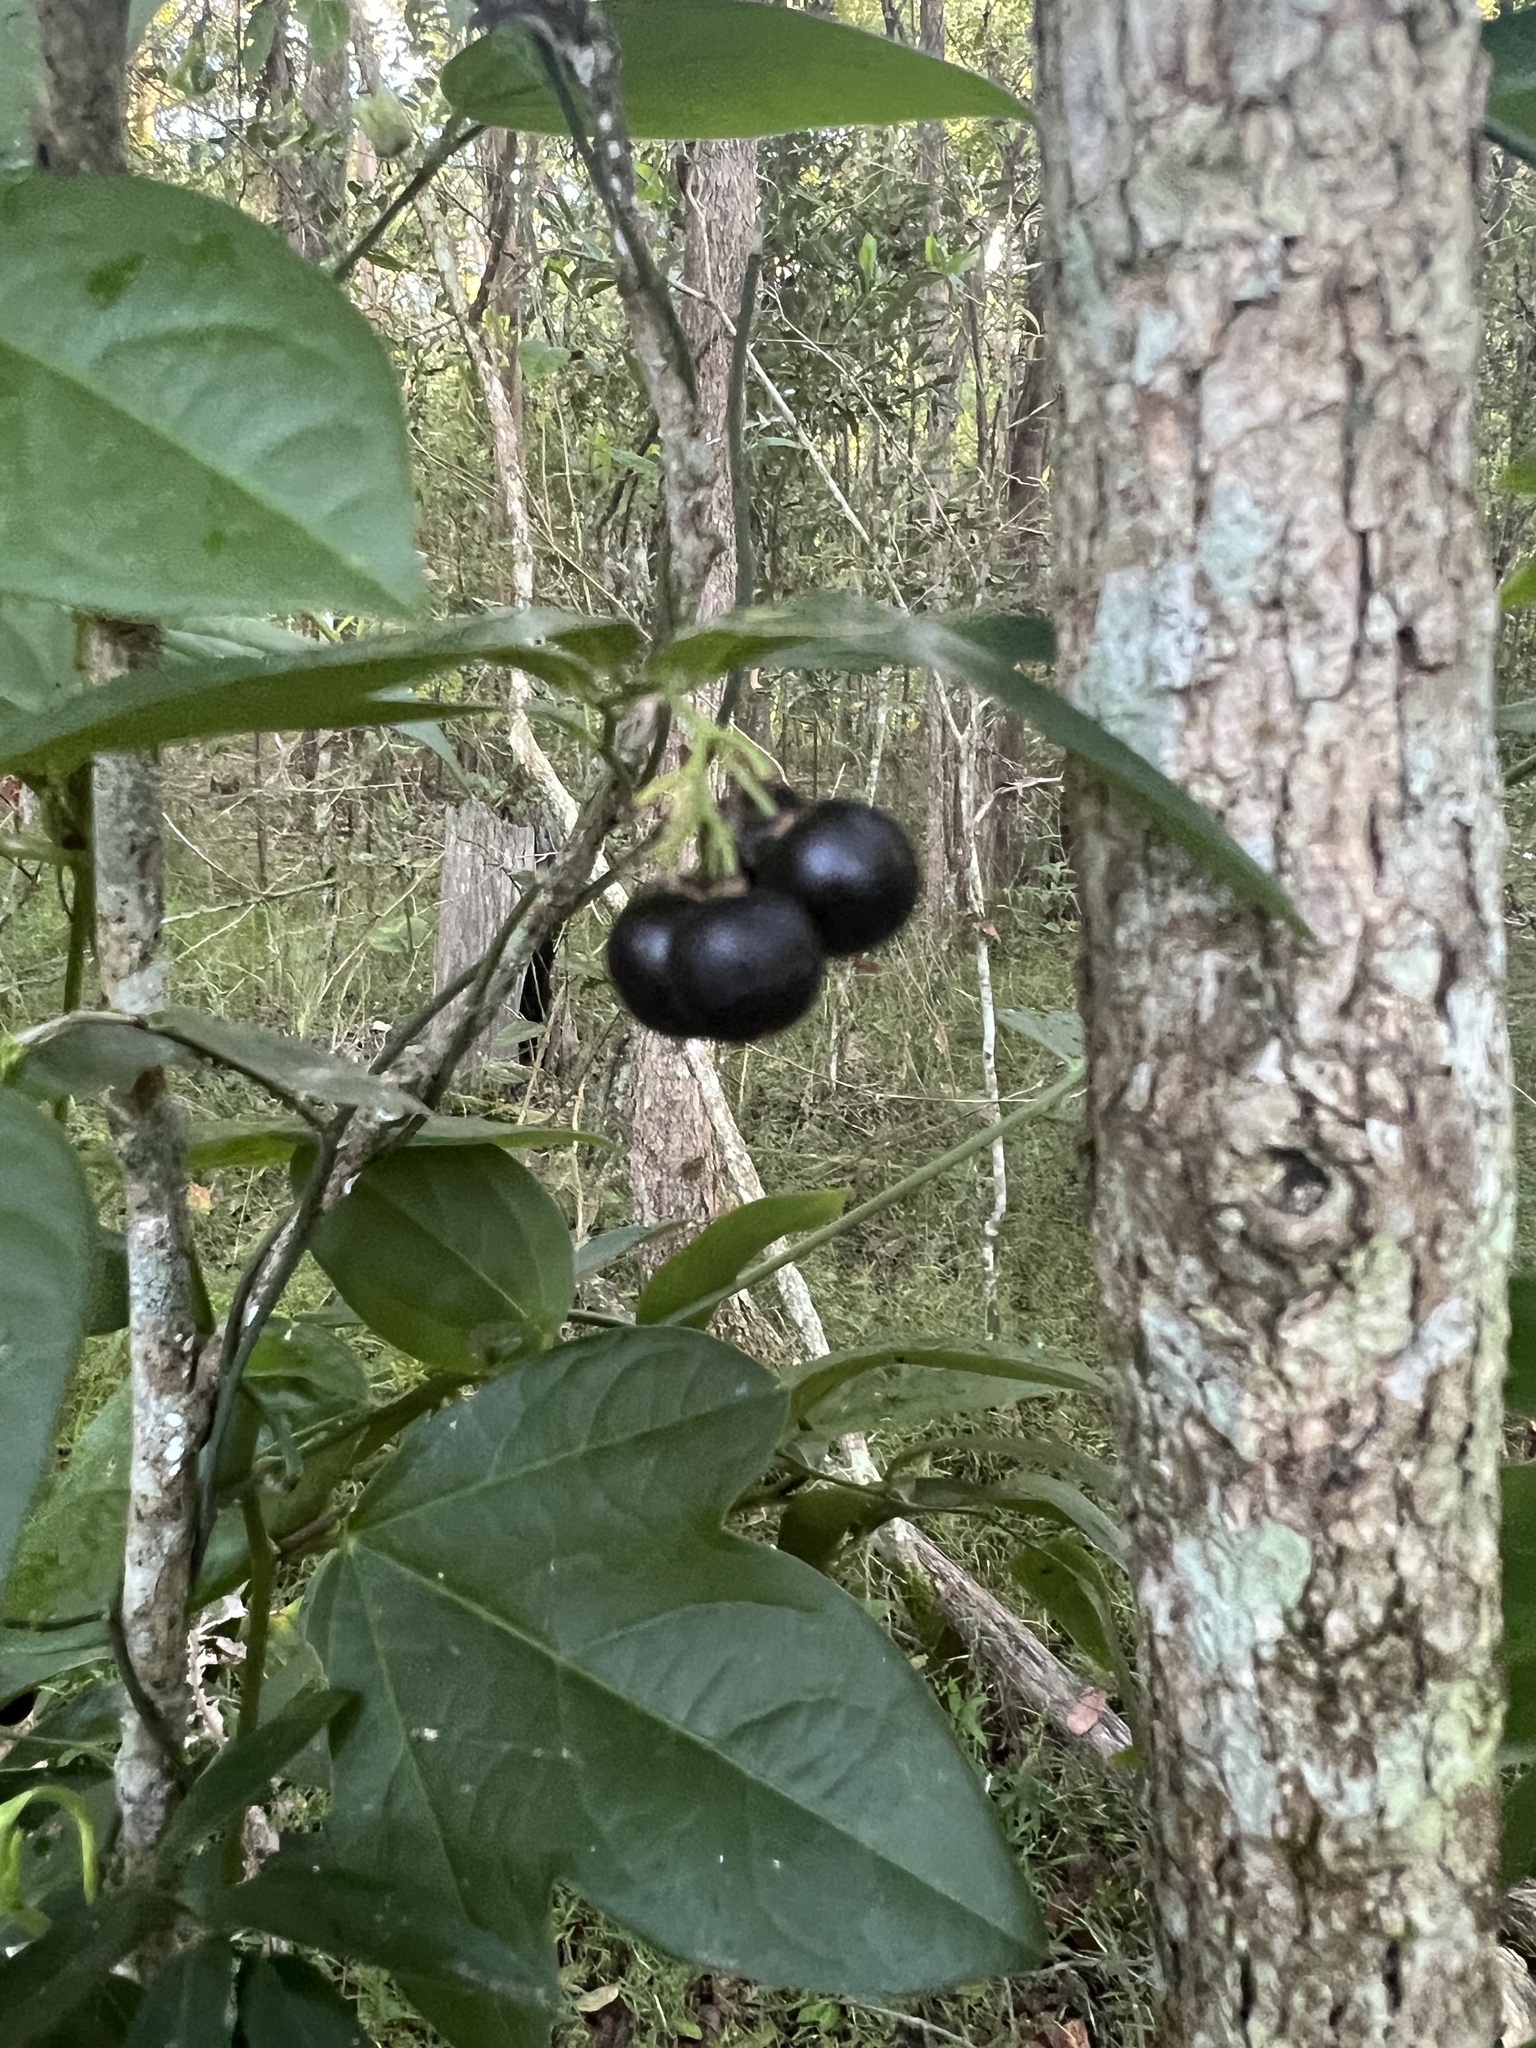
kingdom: Plantae
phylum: Tracheophyta
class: Liliopsida
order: Asparagales
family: Asphodelaceae
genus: Geitonoplesium
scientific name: Geitonoplesium cymosum
